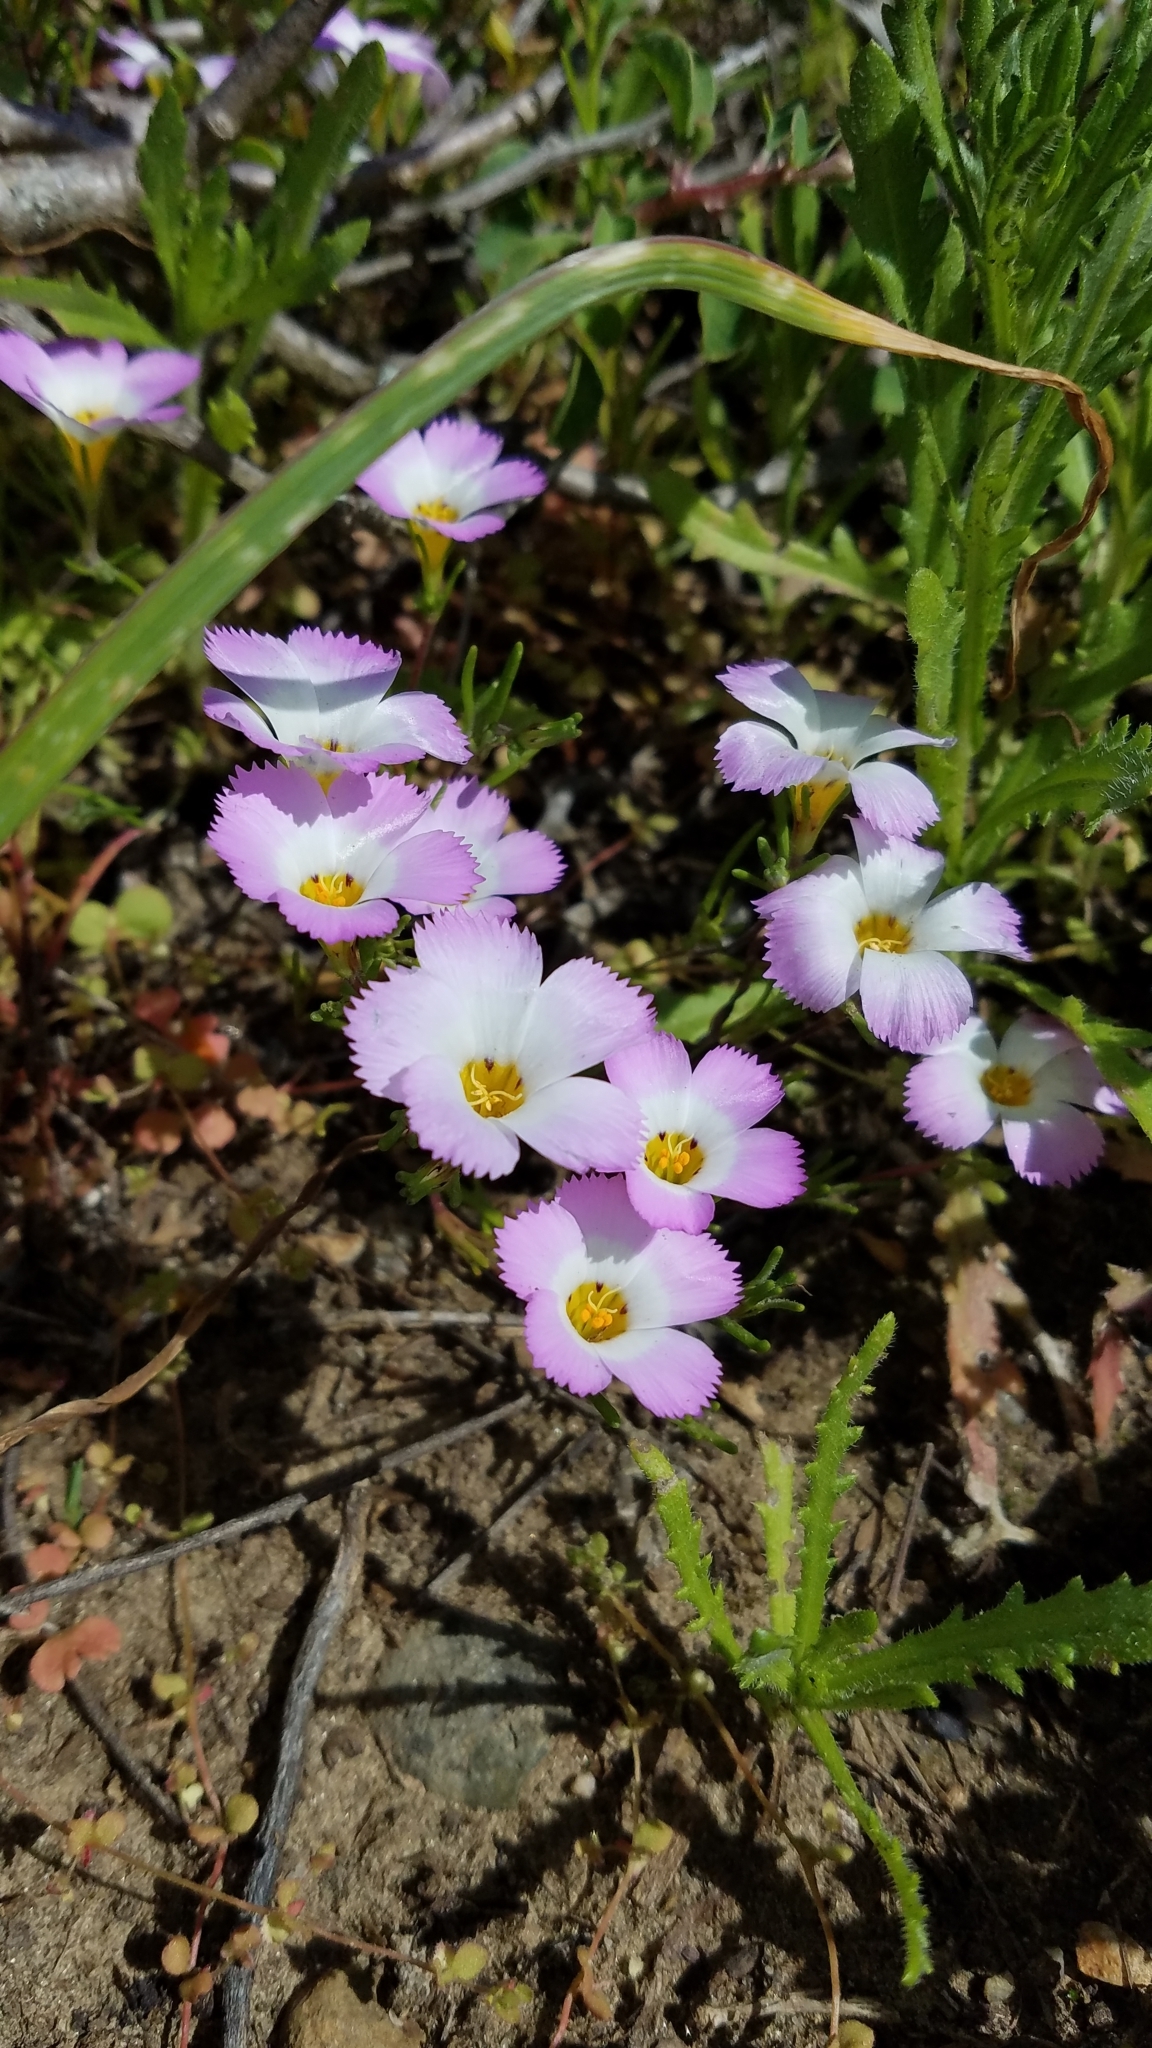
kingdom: Plantae
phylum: Tracheophyta
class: Magnoliopsida
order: Ericales
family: Polemoniaceae
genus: Linanthus
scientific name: Linanthus dianthiflorus
